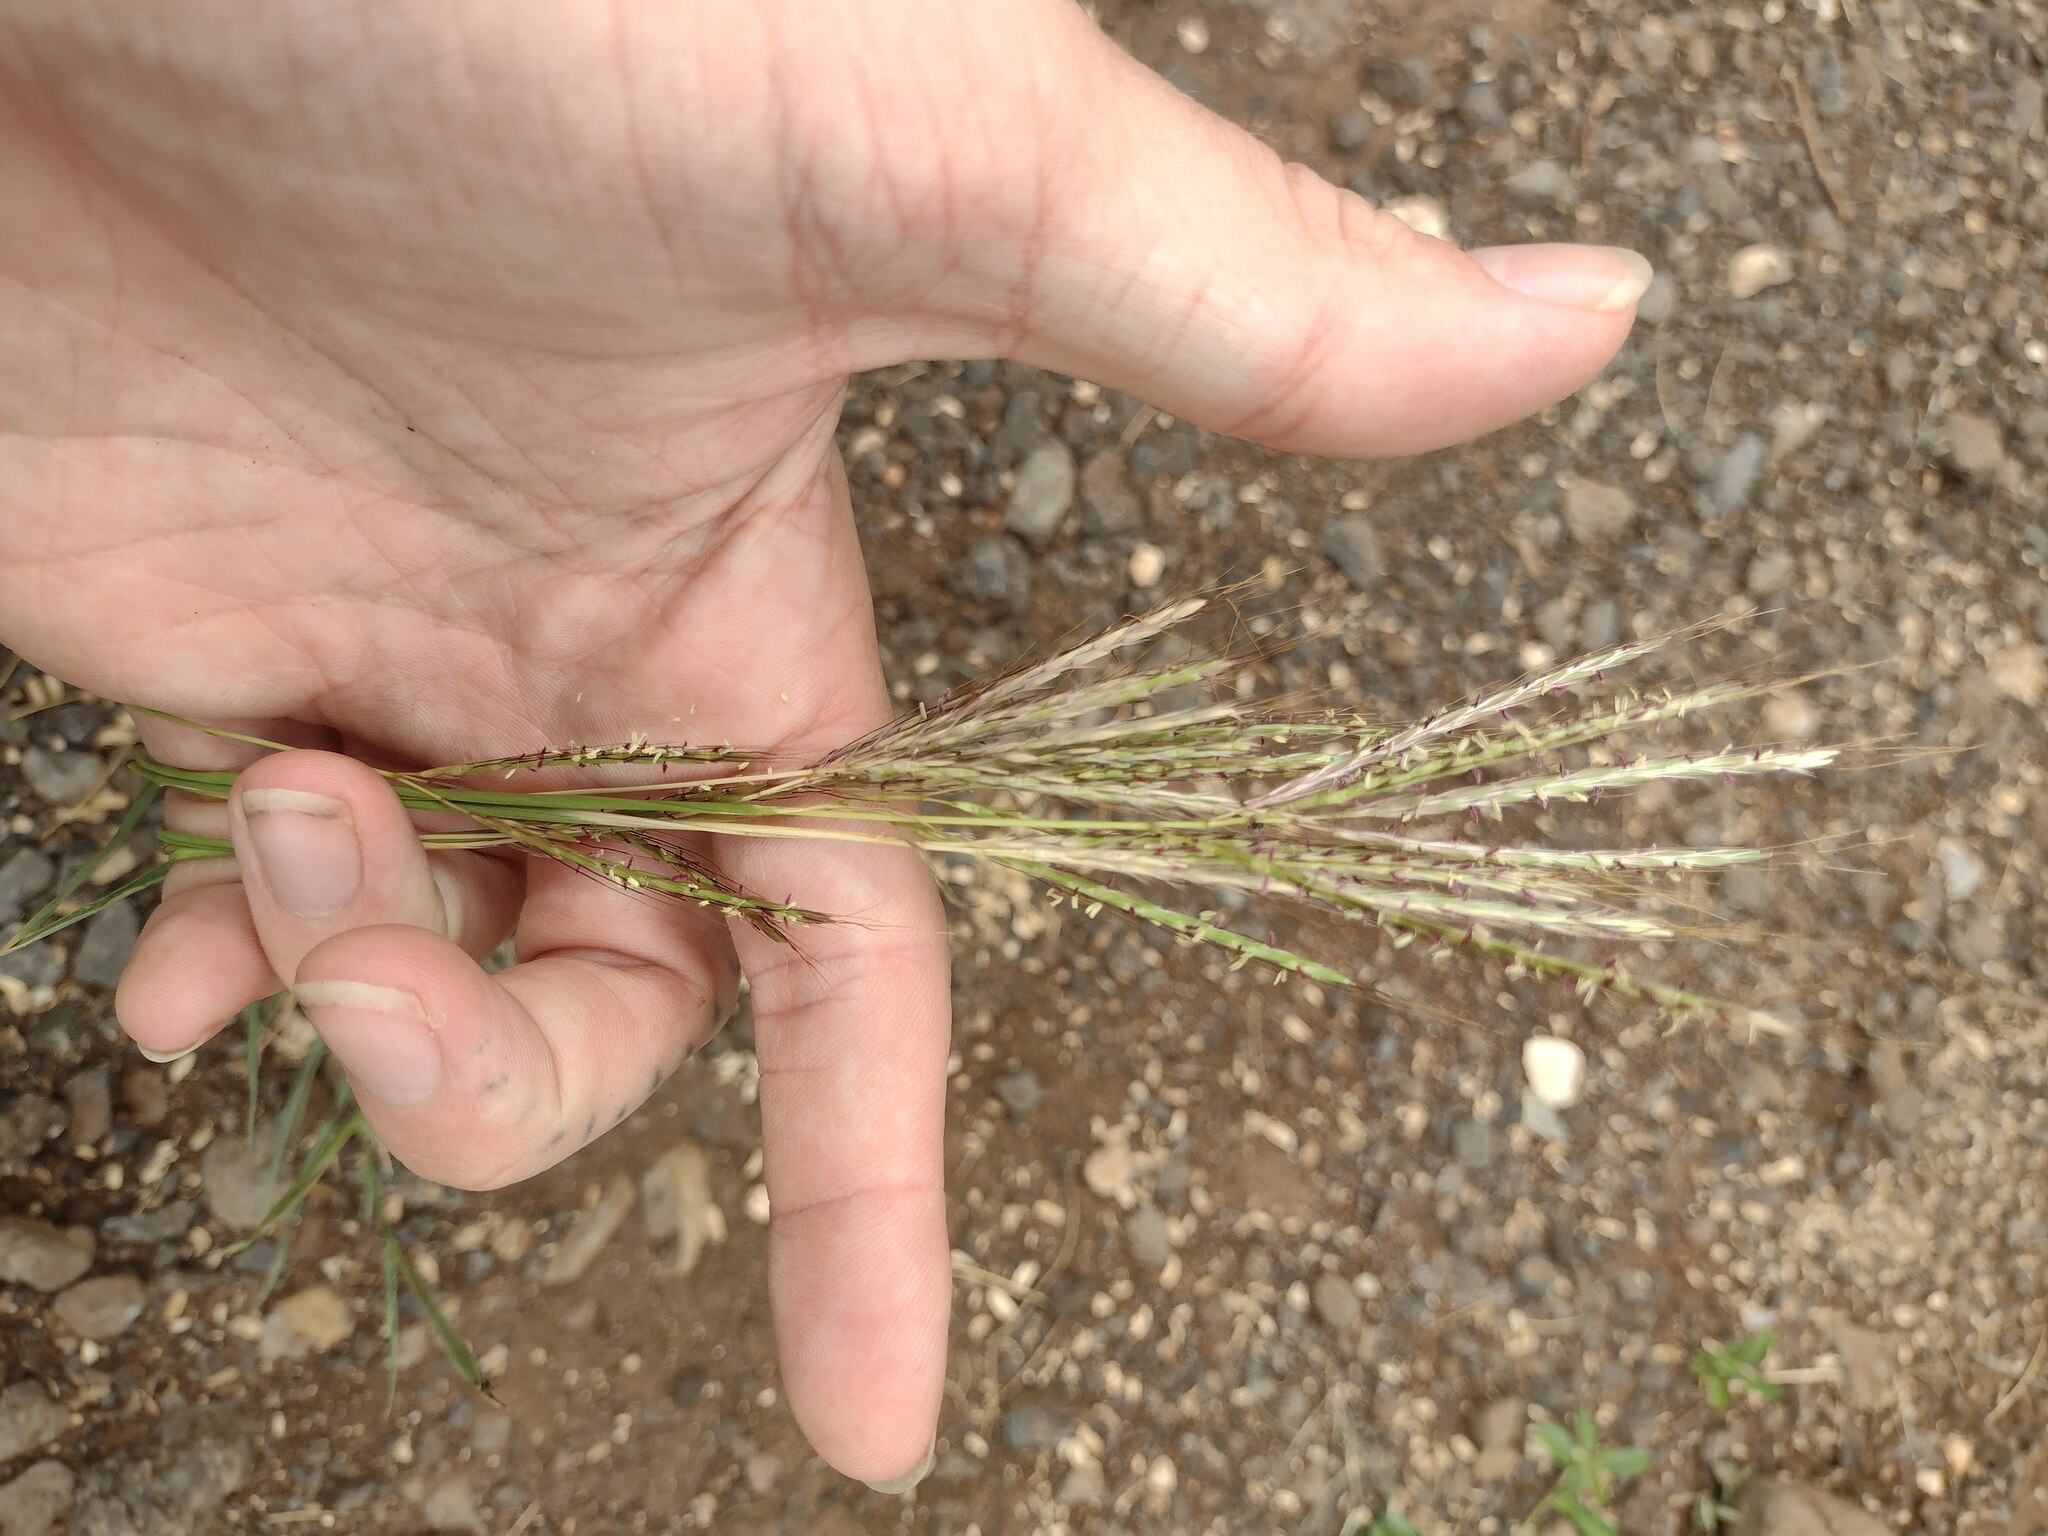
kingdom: Plantae
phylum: Tracheophyta
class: Liliopsida
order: Poales
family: Poaceae
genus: Bothriochloa
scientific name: Bothriochloa pertusa
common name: Pitted beardgrass
